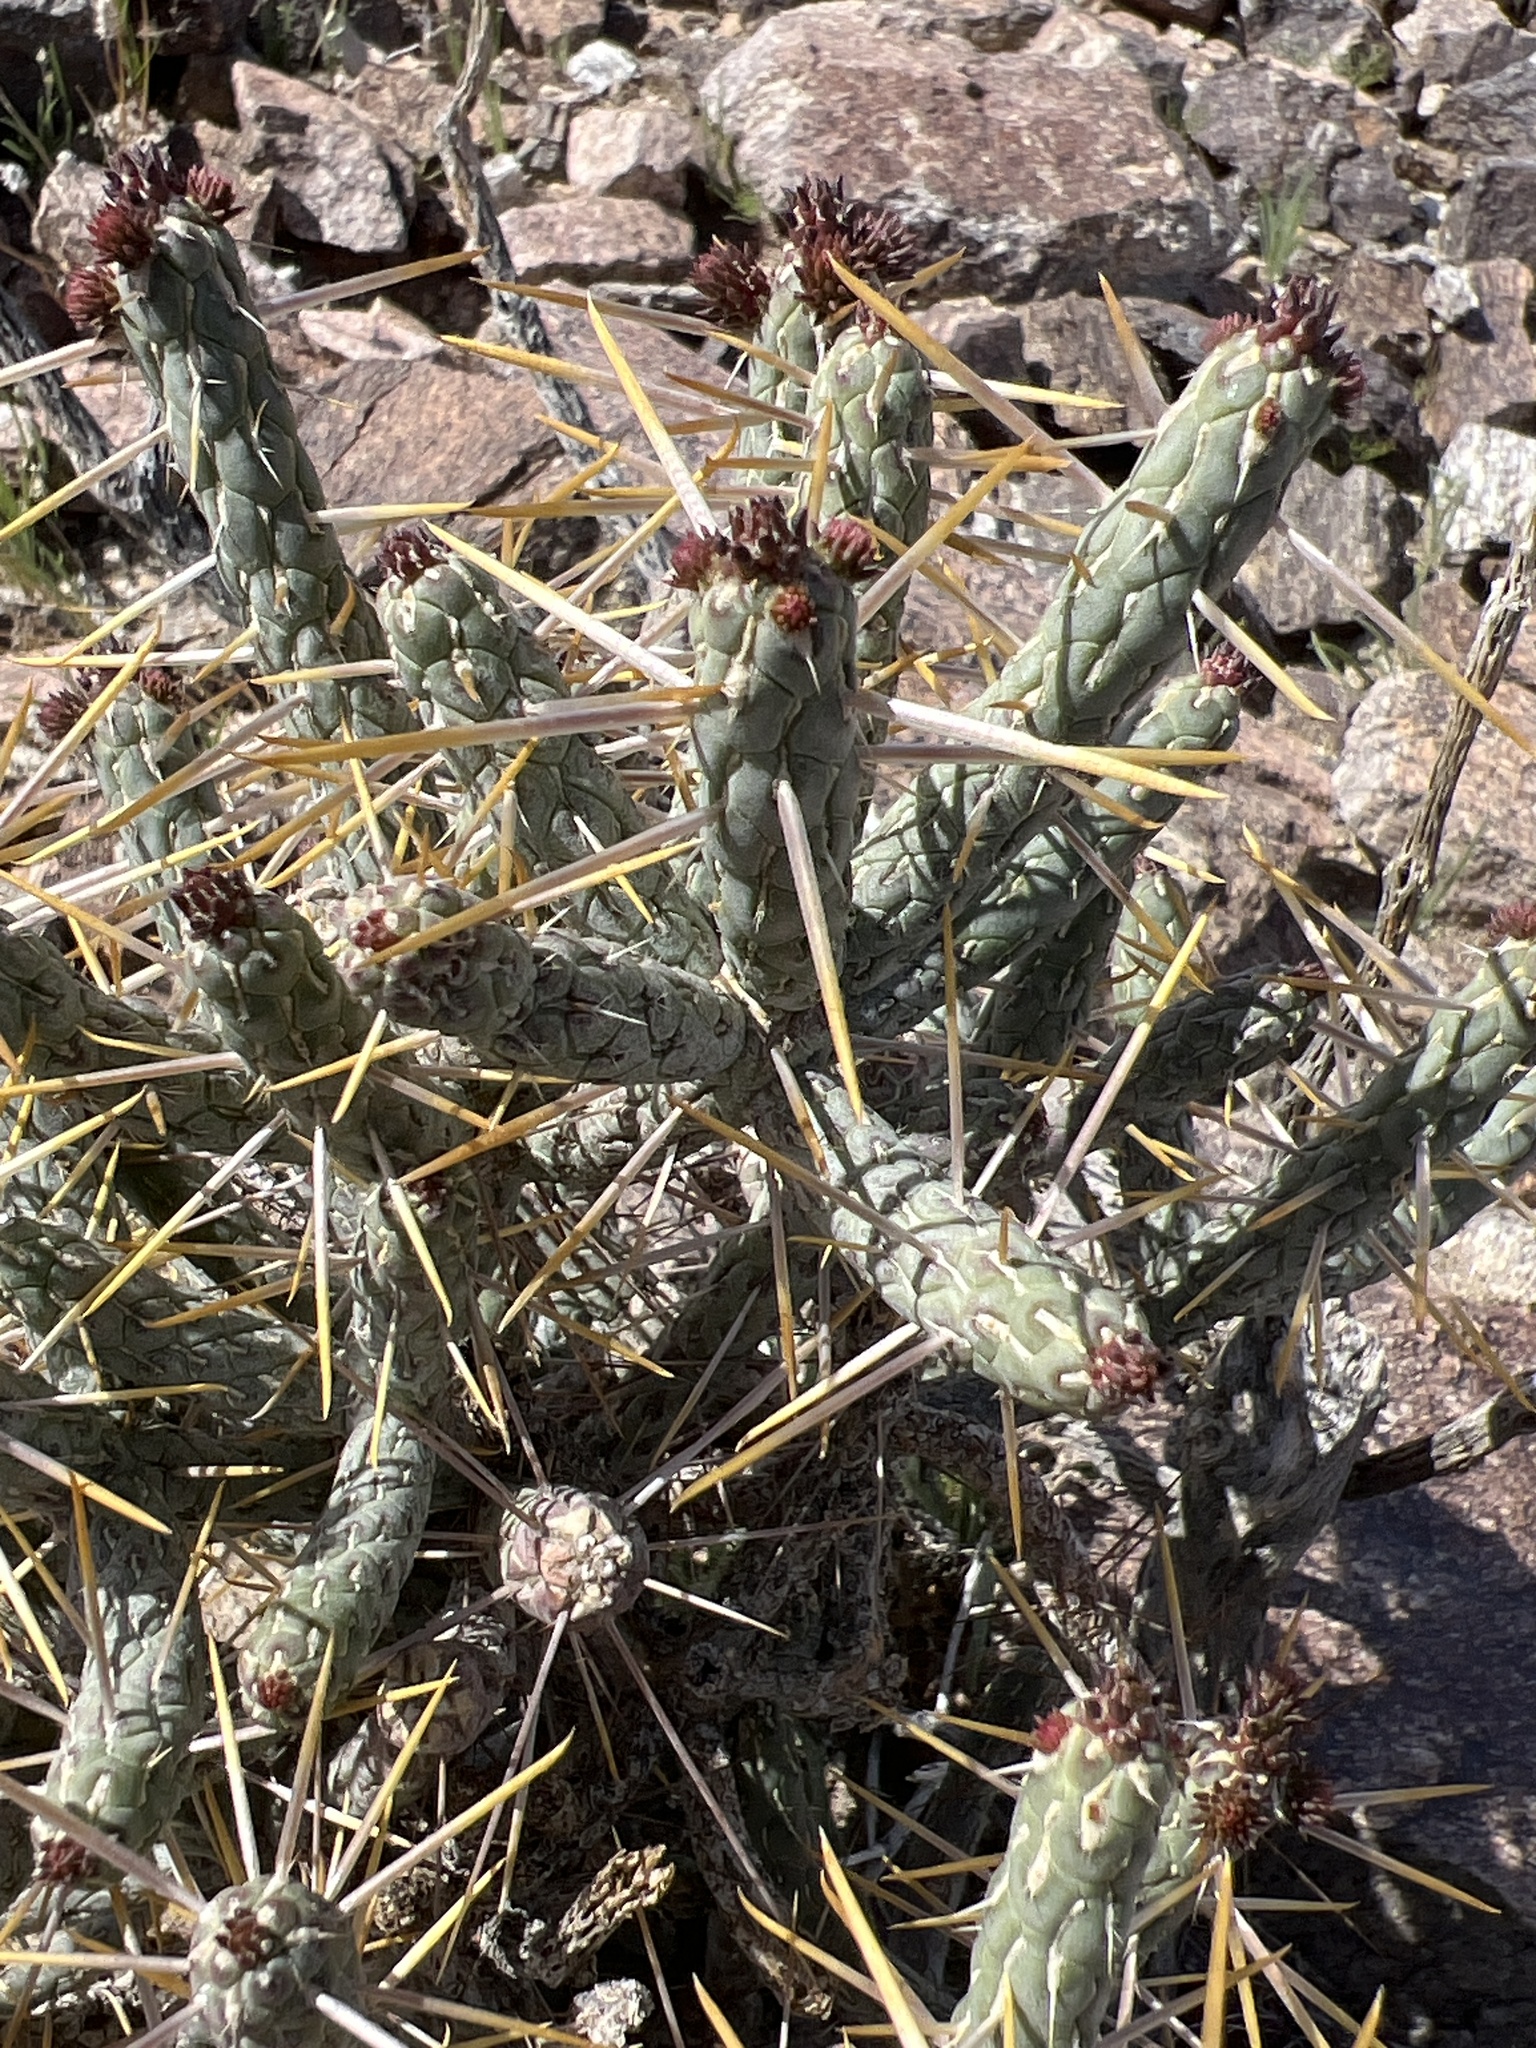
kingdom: Plantae
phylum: Tracheophyta
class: Magnoliopsida
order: Caryophyllales
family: Cactaceae
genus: Cylindropuntia
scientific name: Cylindropuntia ramosissima
